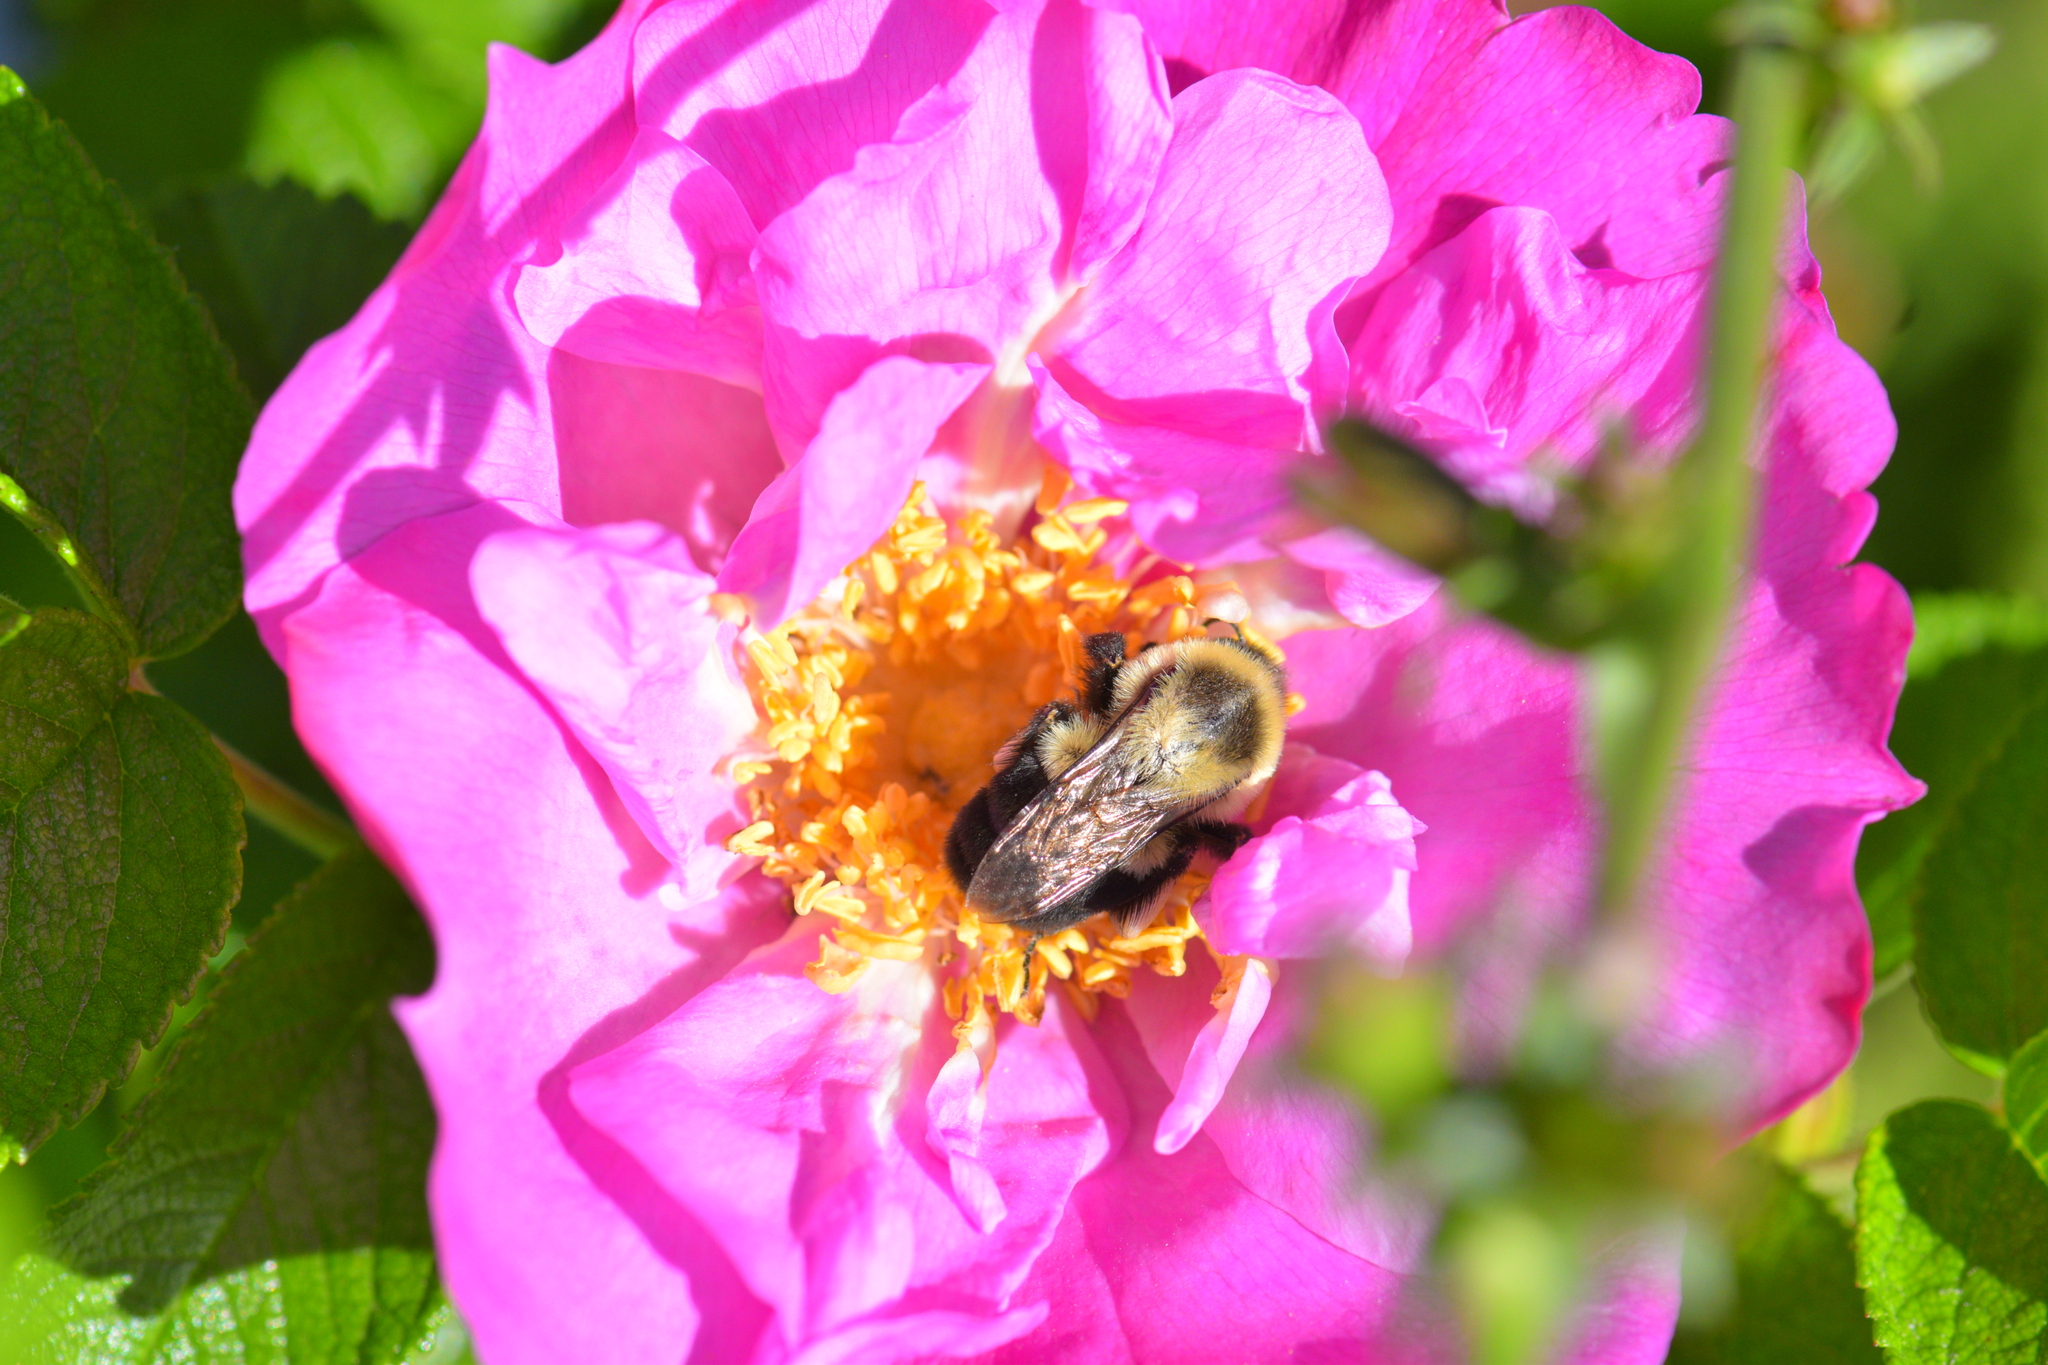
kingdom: Animalia
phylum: Arthropoda
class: Insecta
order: Hymenoptera
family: Apidae
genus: Bombus
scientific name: Bombus impatiens
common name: Common eastern bumble bee
